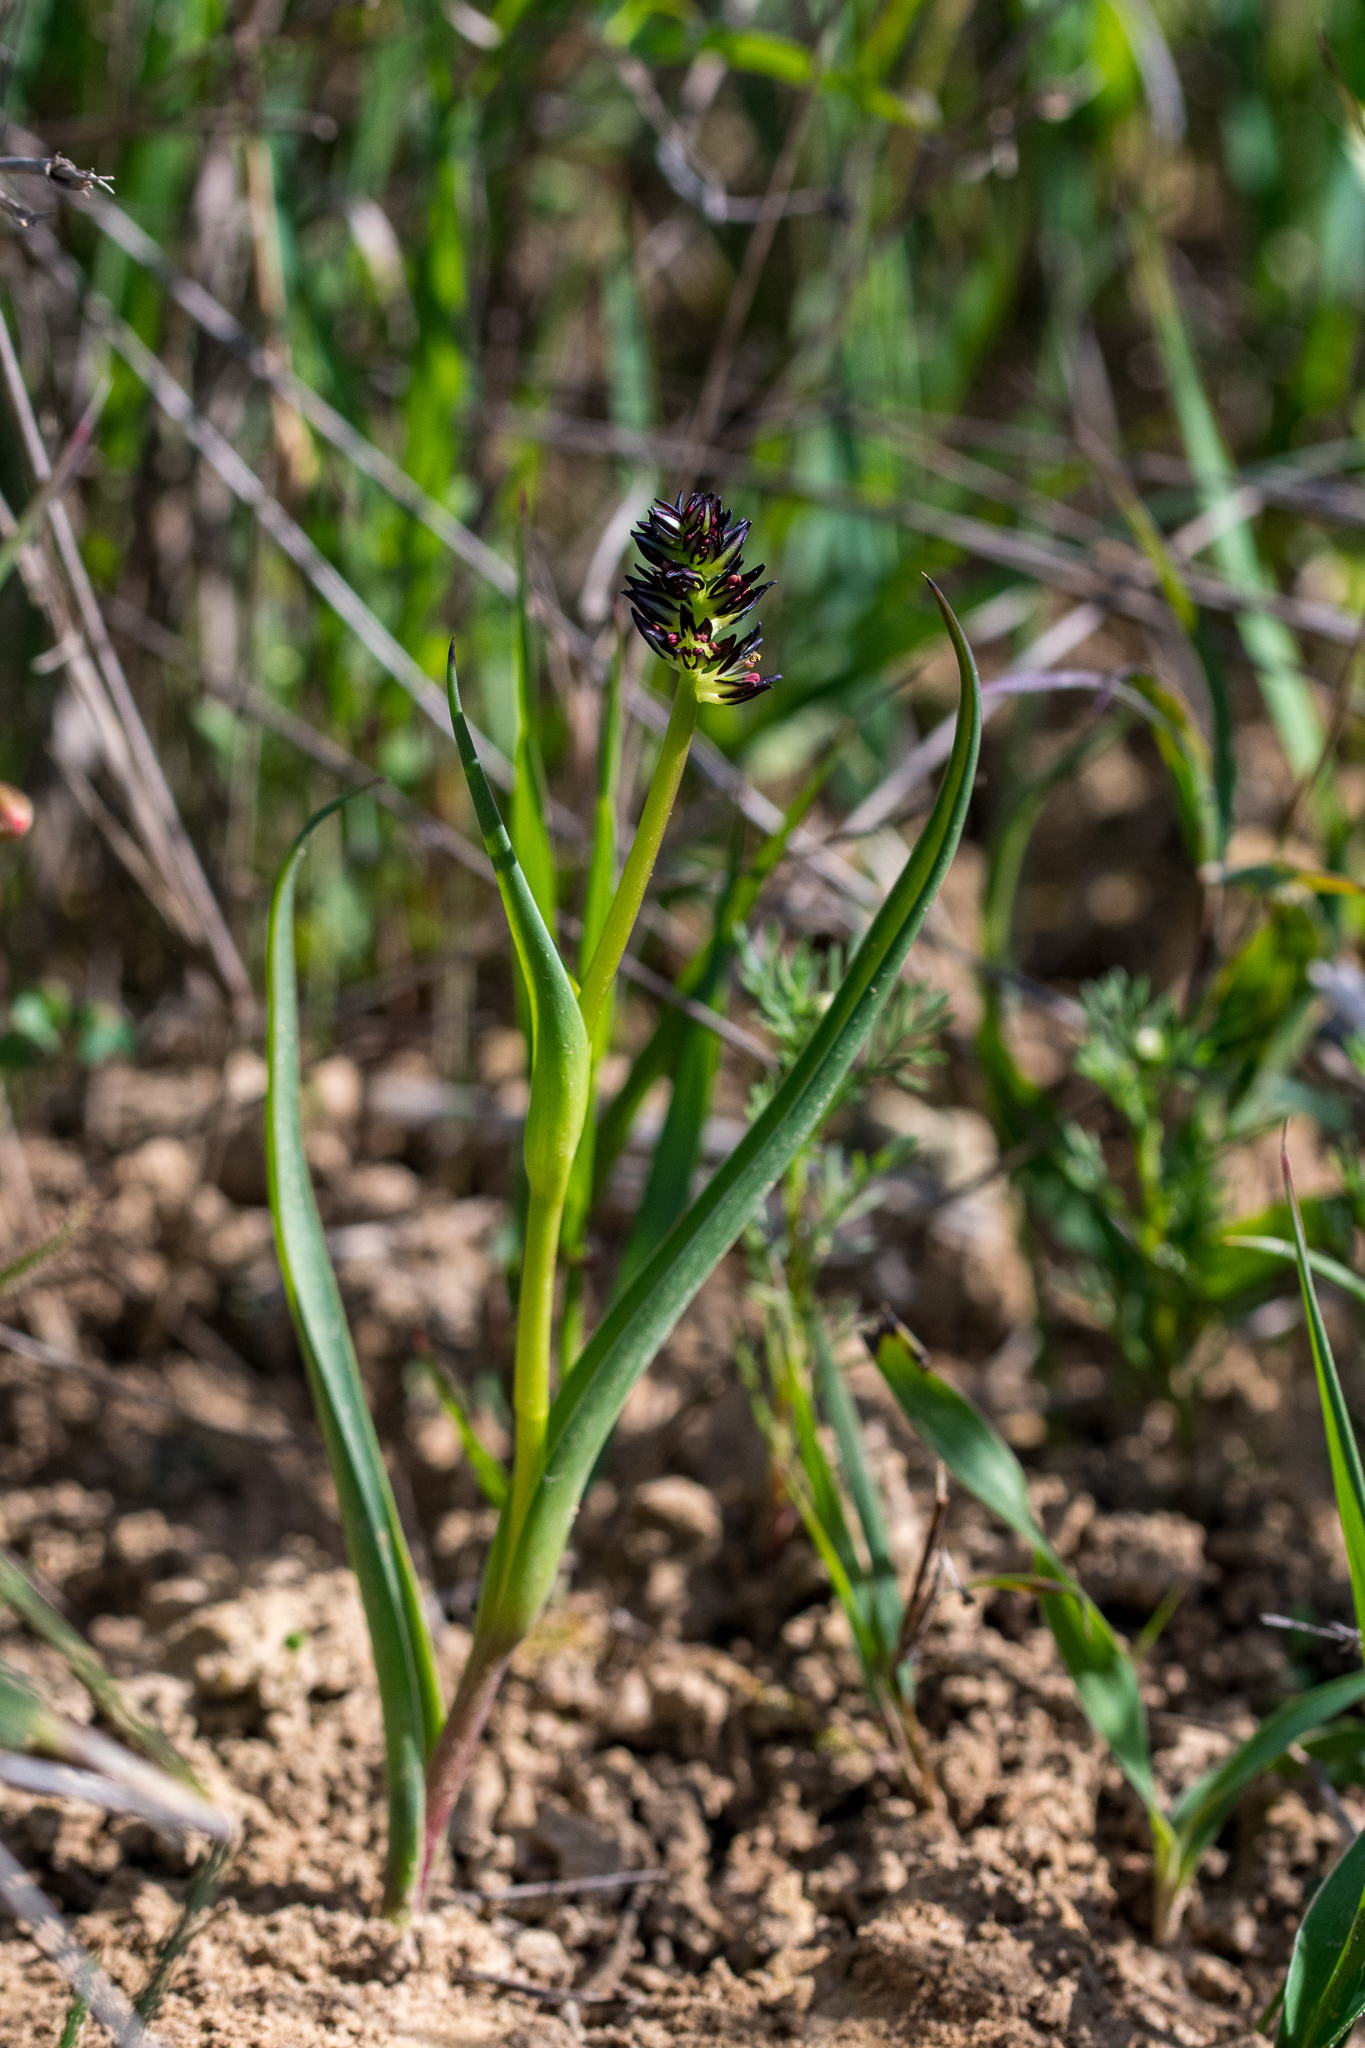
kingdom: Plantae
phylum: Tracheophyta
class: Liliopsida
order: Liliales
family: Colchicaceae
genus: Wurmbea
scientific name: Wurmbea spicata
